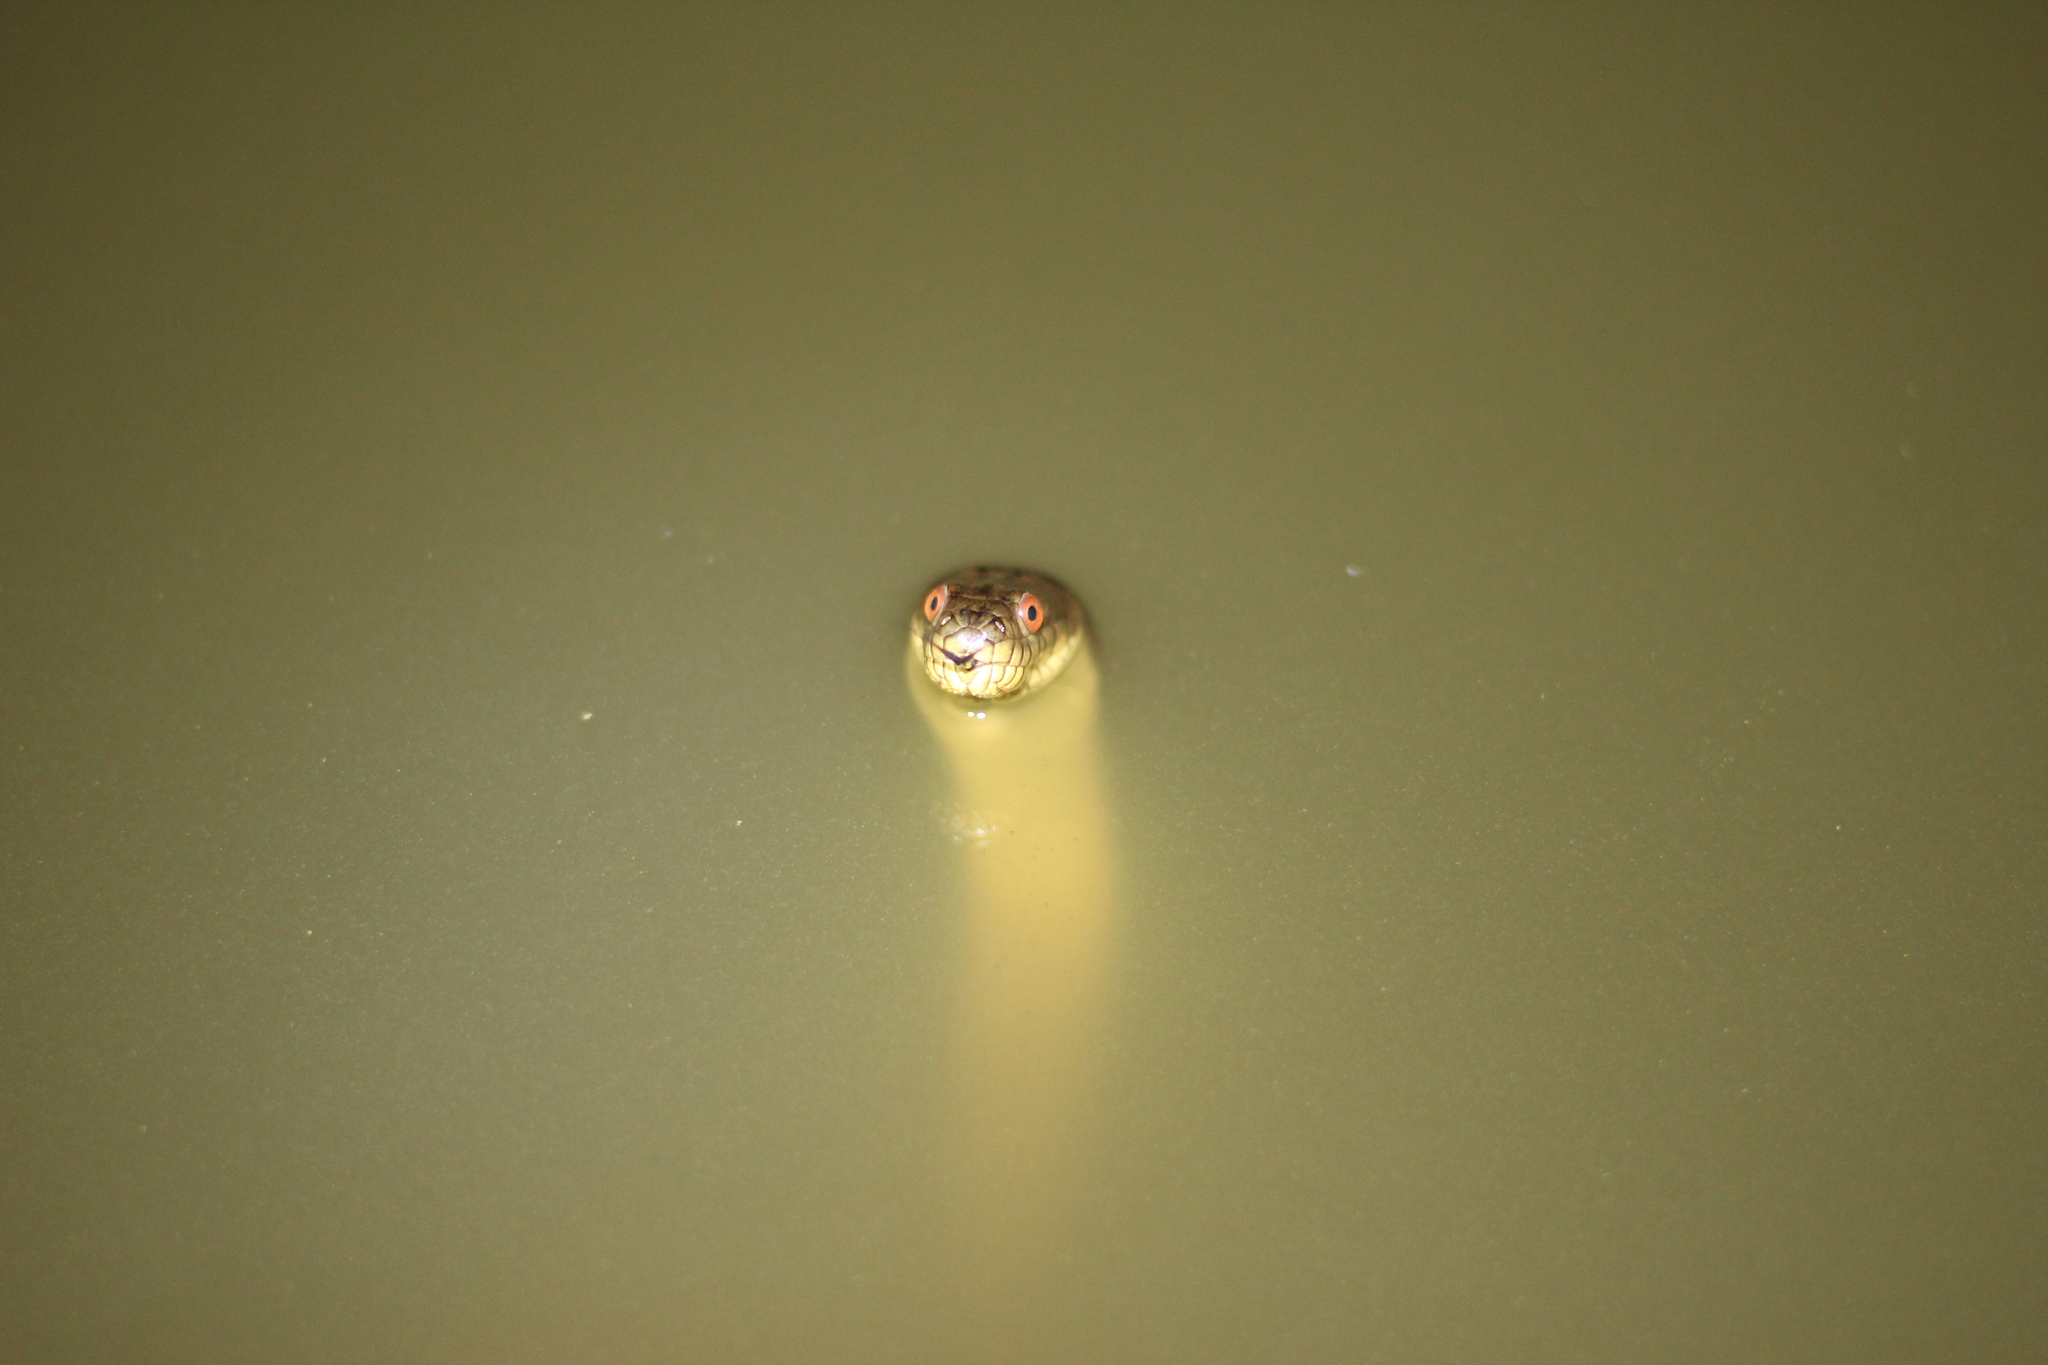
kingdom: Animalia
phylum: Chordata
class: Squamata
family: Colubridae
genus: Nerodia
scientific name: Nerodia rhombifer
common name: Diamondback water snake
